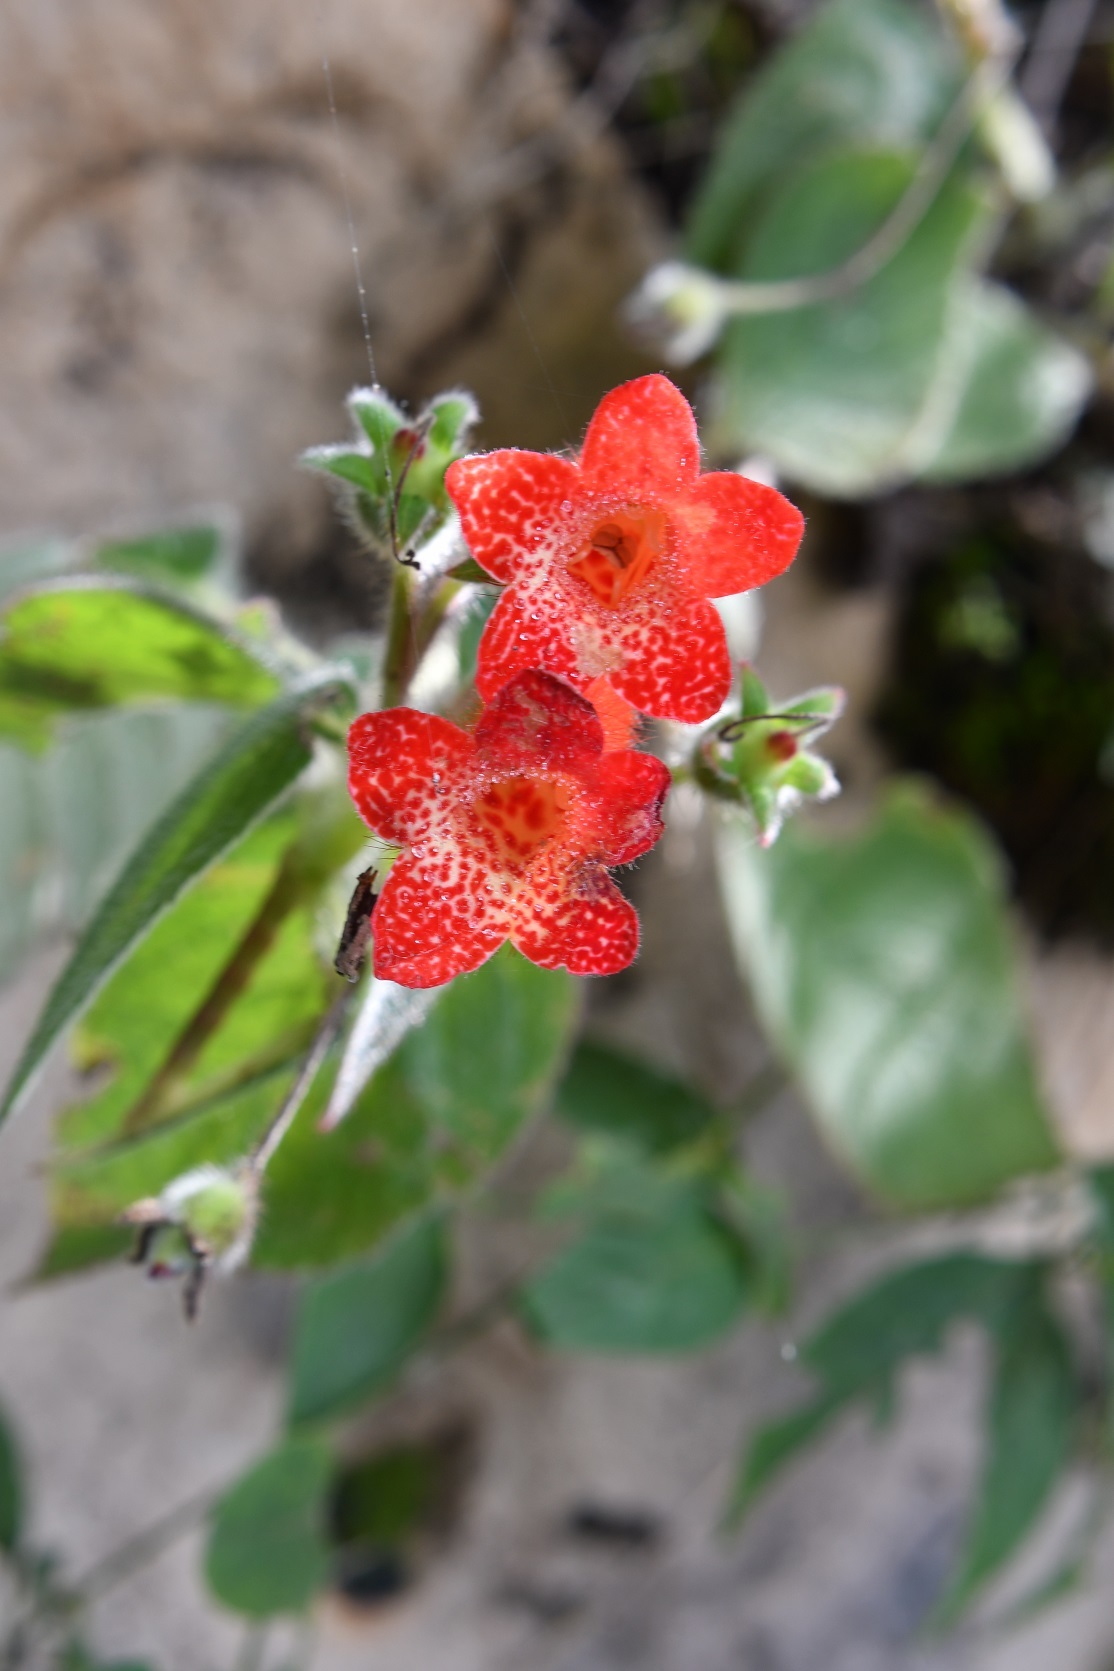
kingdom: Plantae
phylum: Tracheophyta
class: Magnoliopsida
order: Lamiales
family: Gesneriaceae
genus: Kohleria
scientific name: Kohleria rugata
